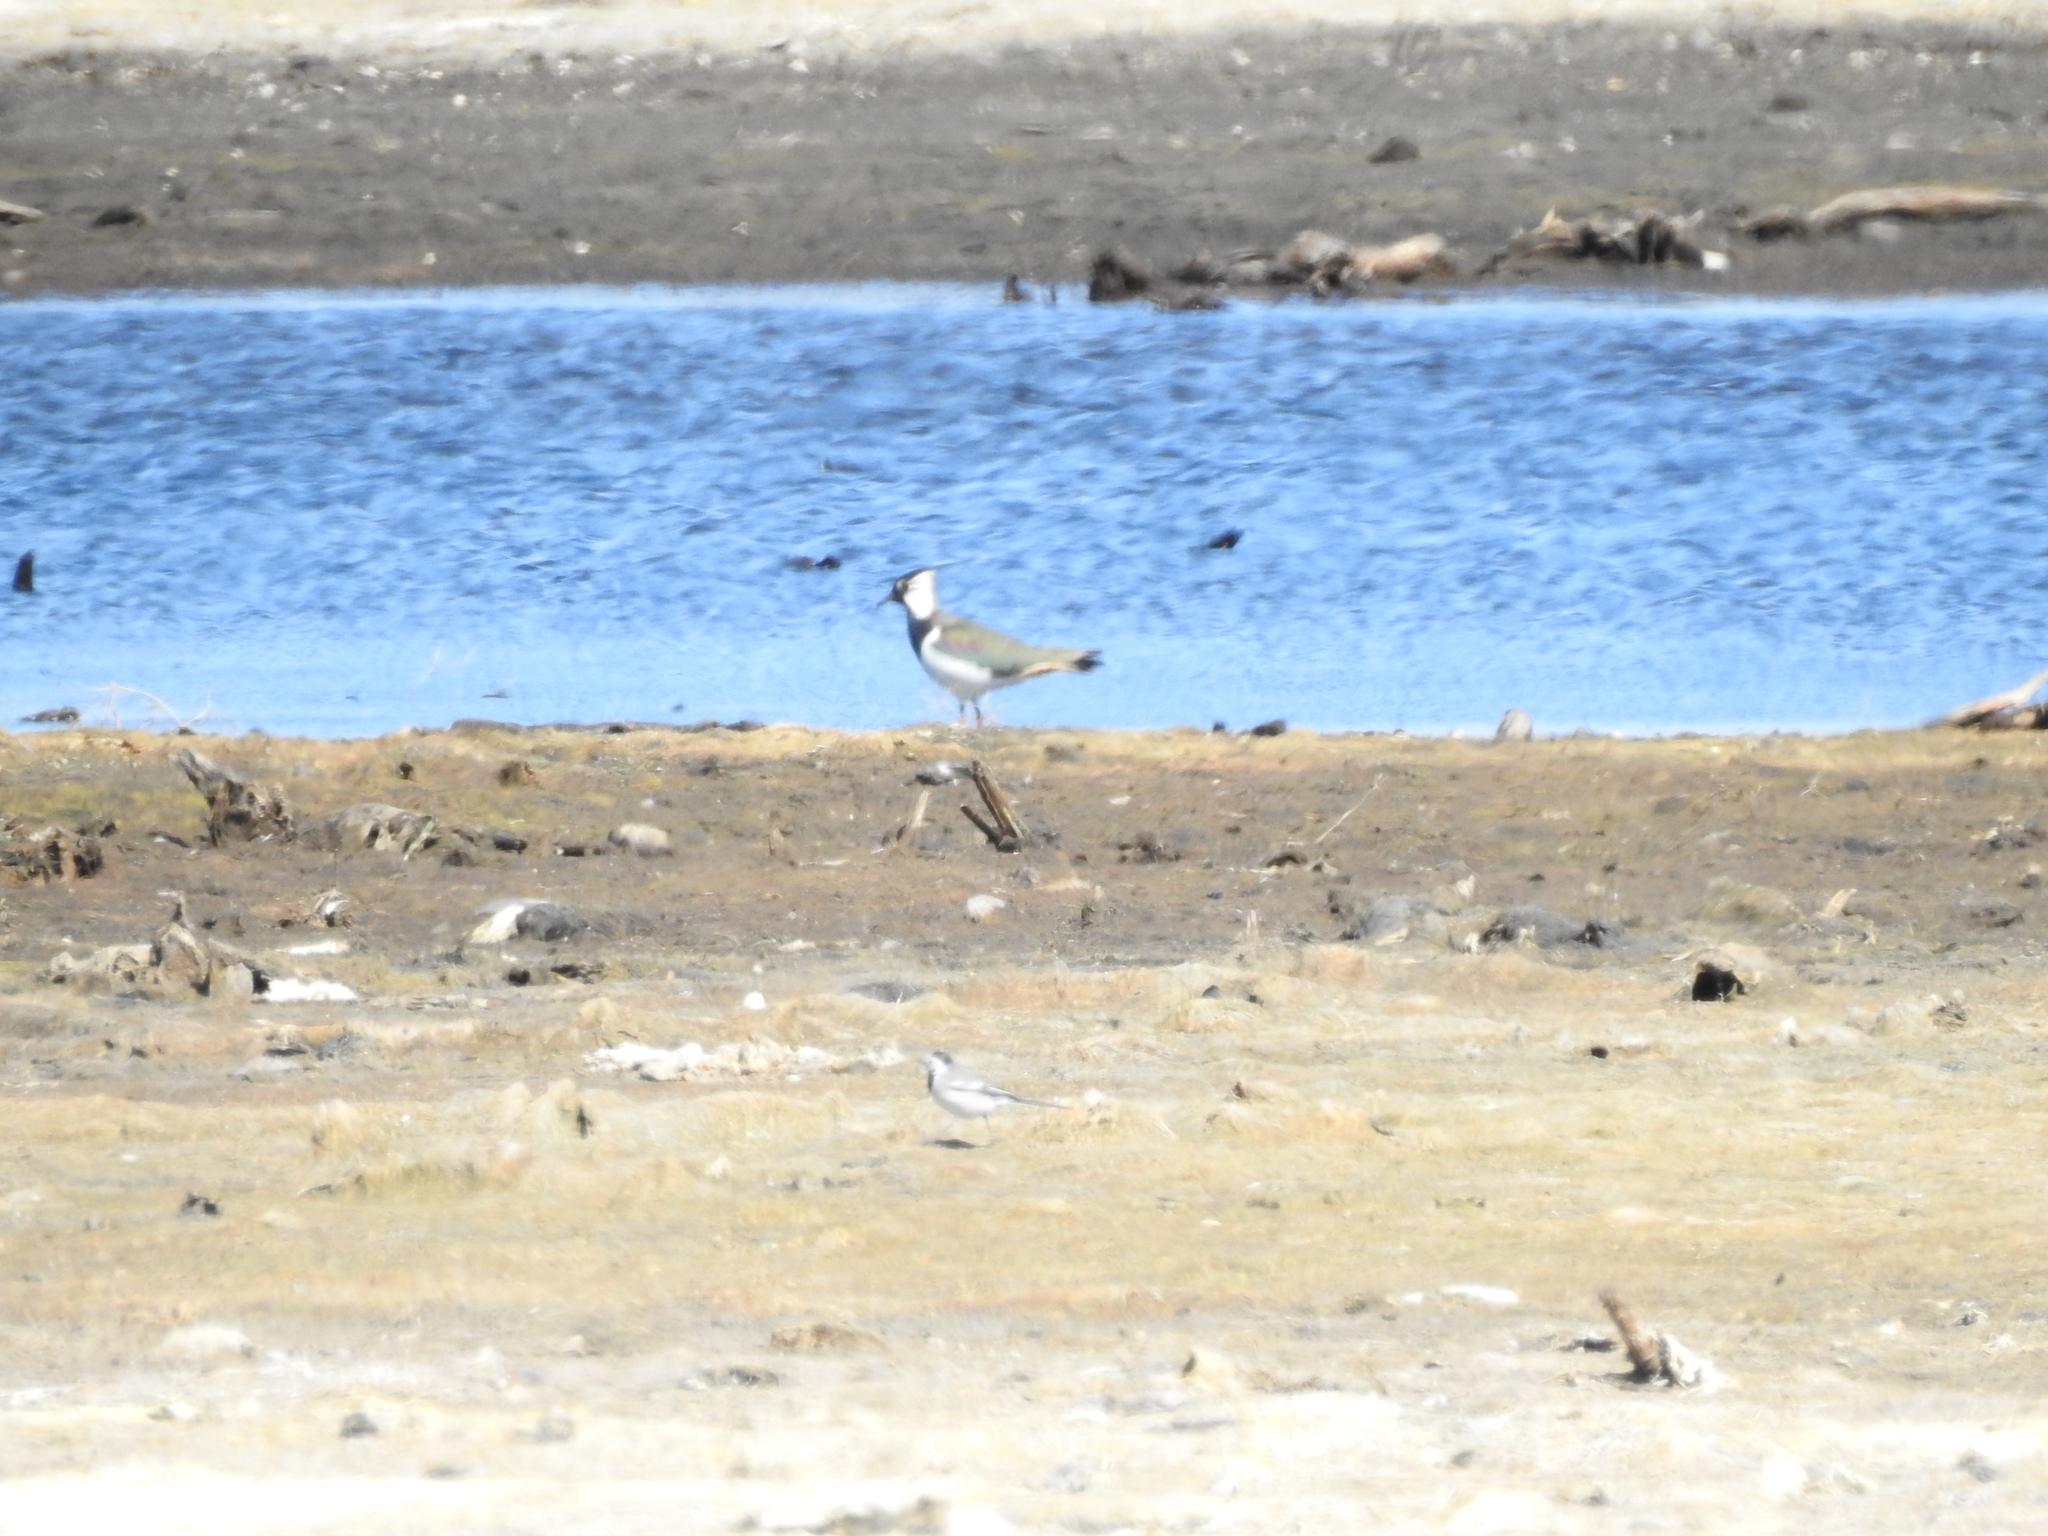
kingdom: Animalia
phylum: Chordata
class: Aves
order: Charadriiformes
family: Charadriidae
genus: Vanellus
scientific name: Vanellus vanellus
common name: Northern lapwing
